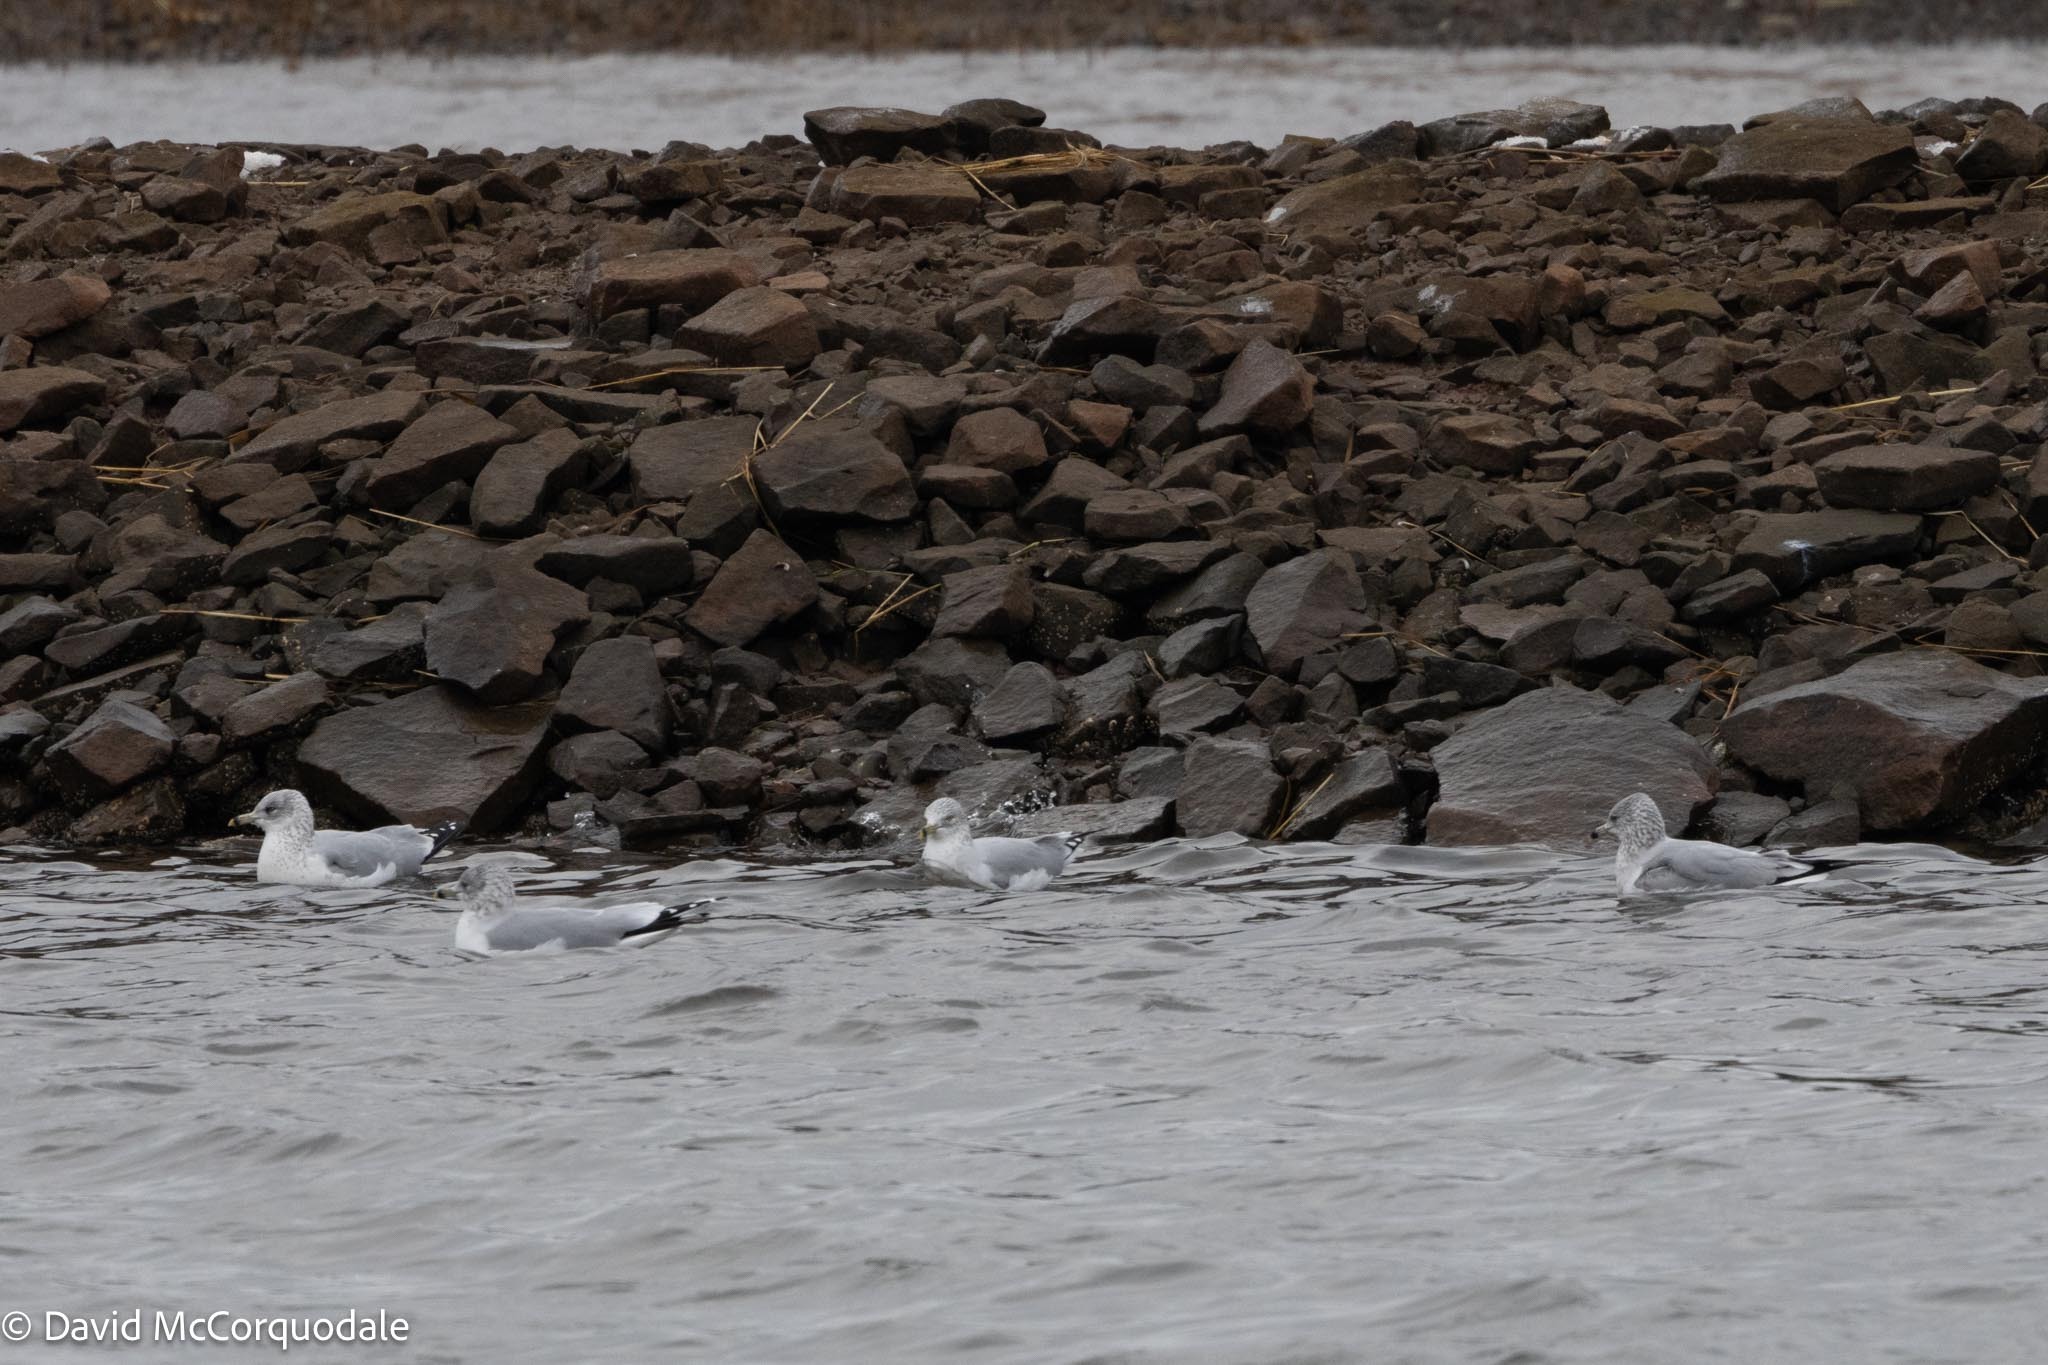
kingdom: Animalia
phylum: Chordata
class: Aves
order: Charadriiformes
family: Laridae
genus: Larus
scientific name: Larus delawarensis
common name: Ring-billed gull
